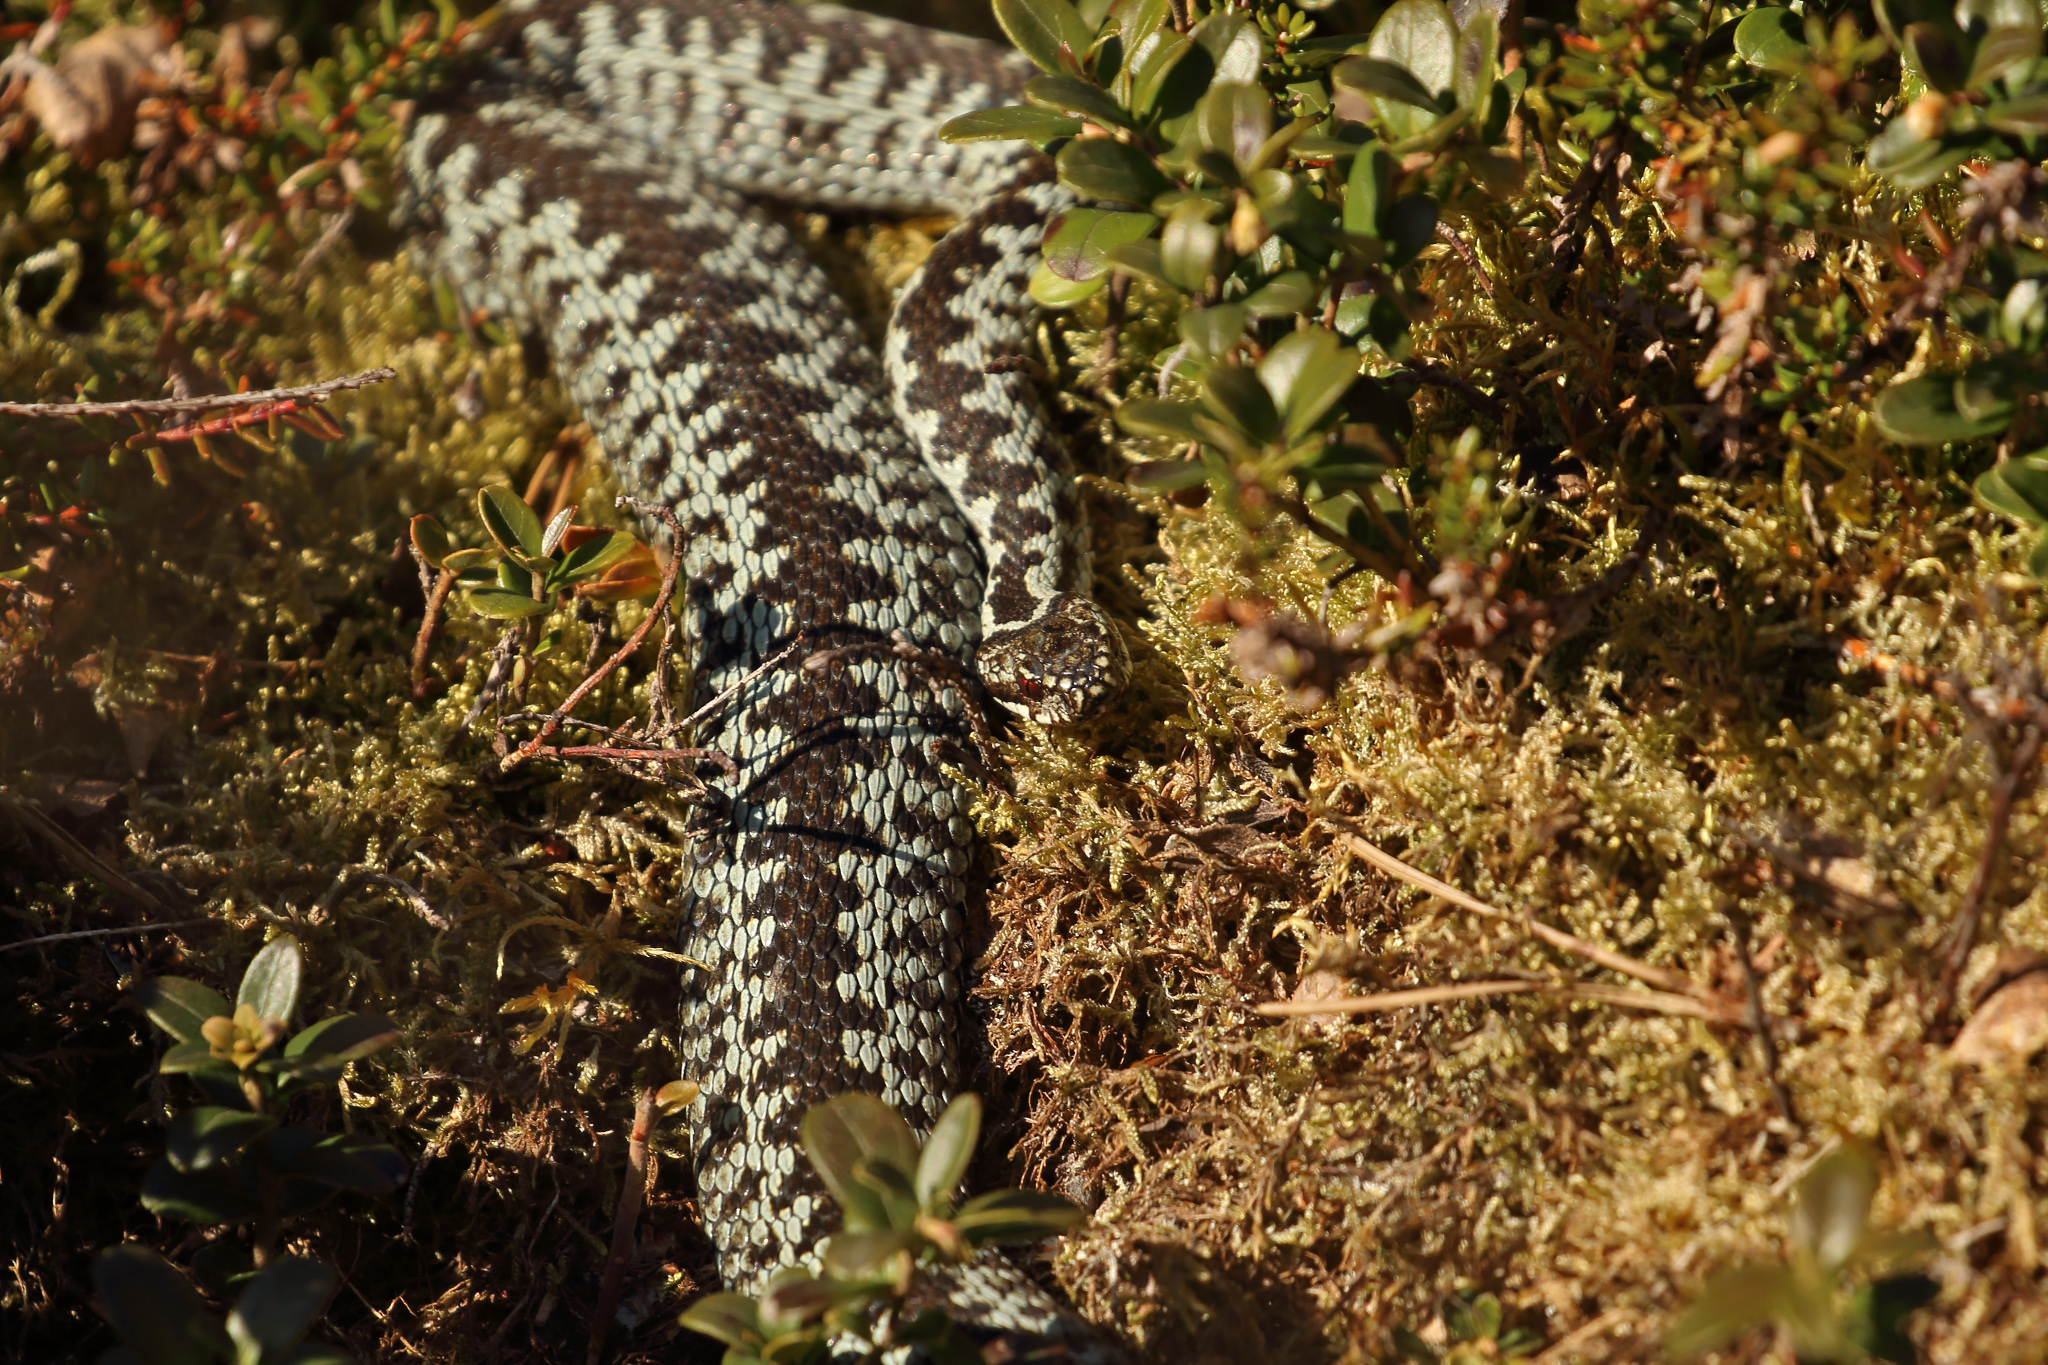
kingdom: Animalia
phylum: Chordata
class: Squamata
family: Viperidae
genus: Vipera
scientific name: Vipera berus
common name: Adder
